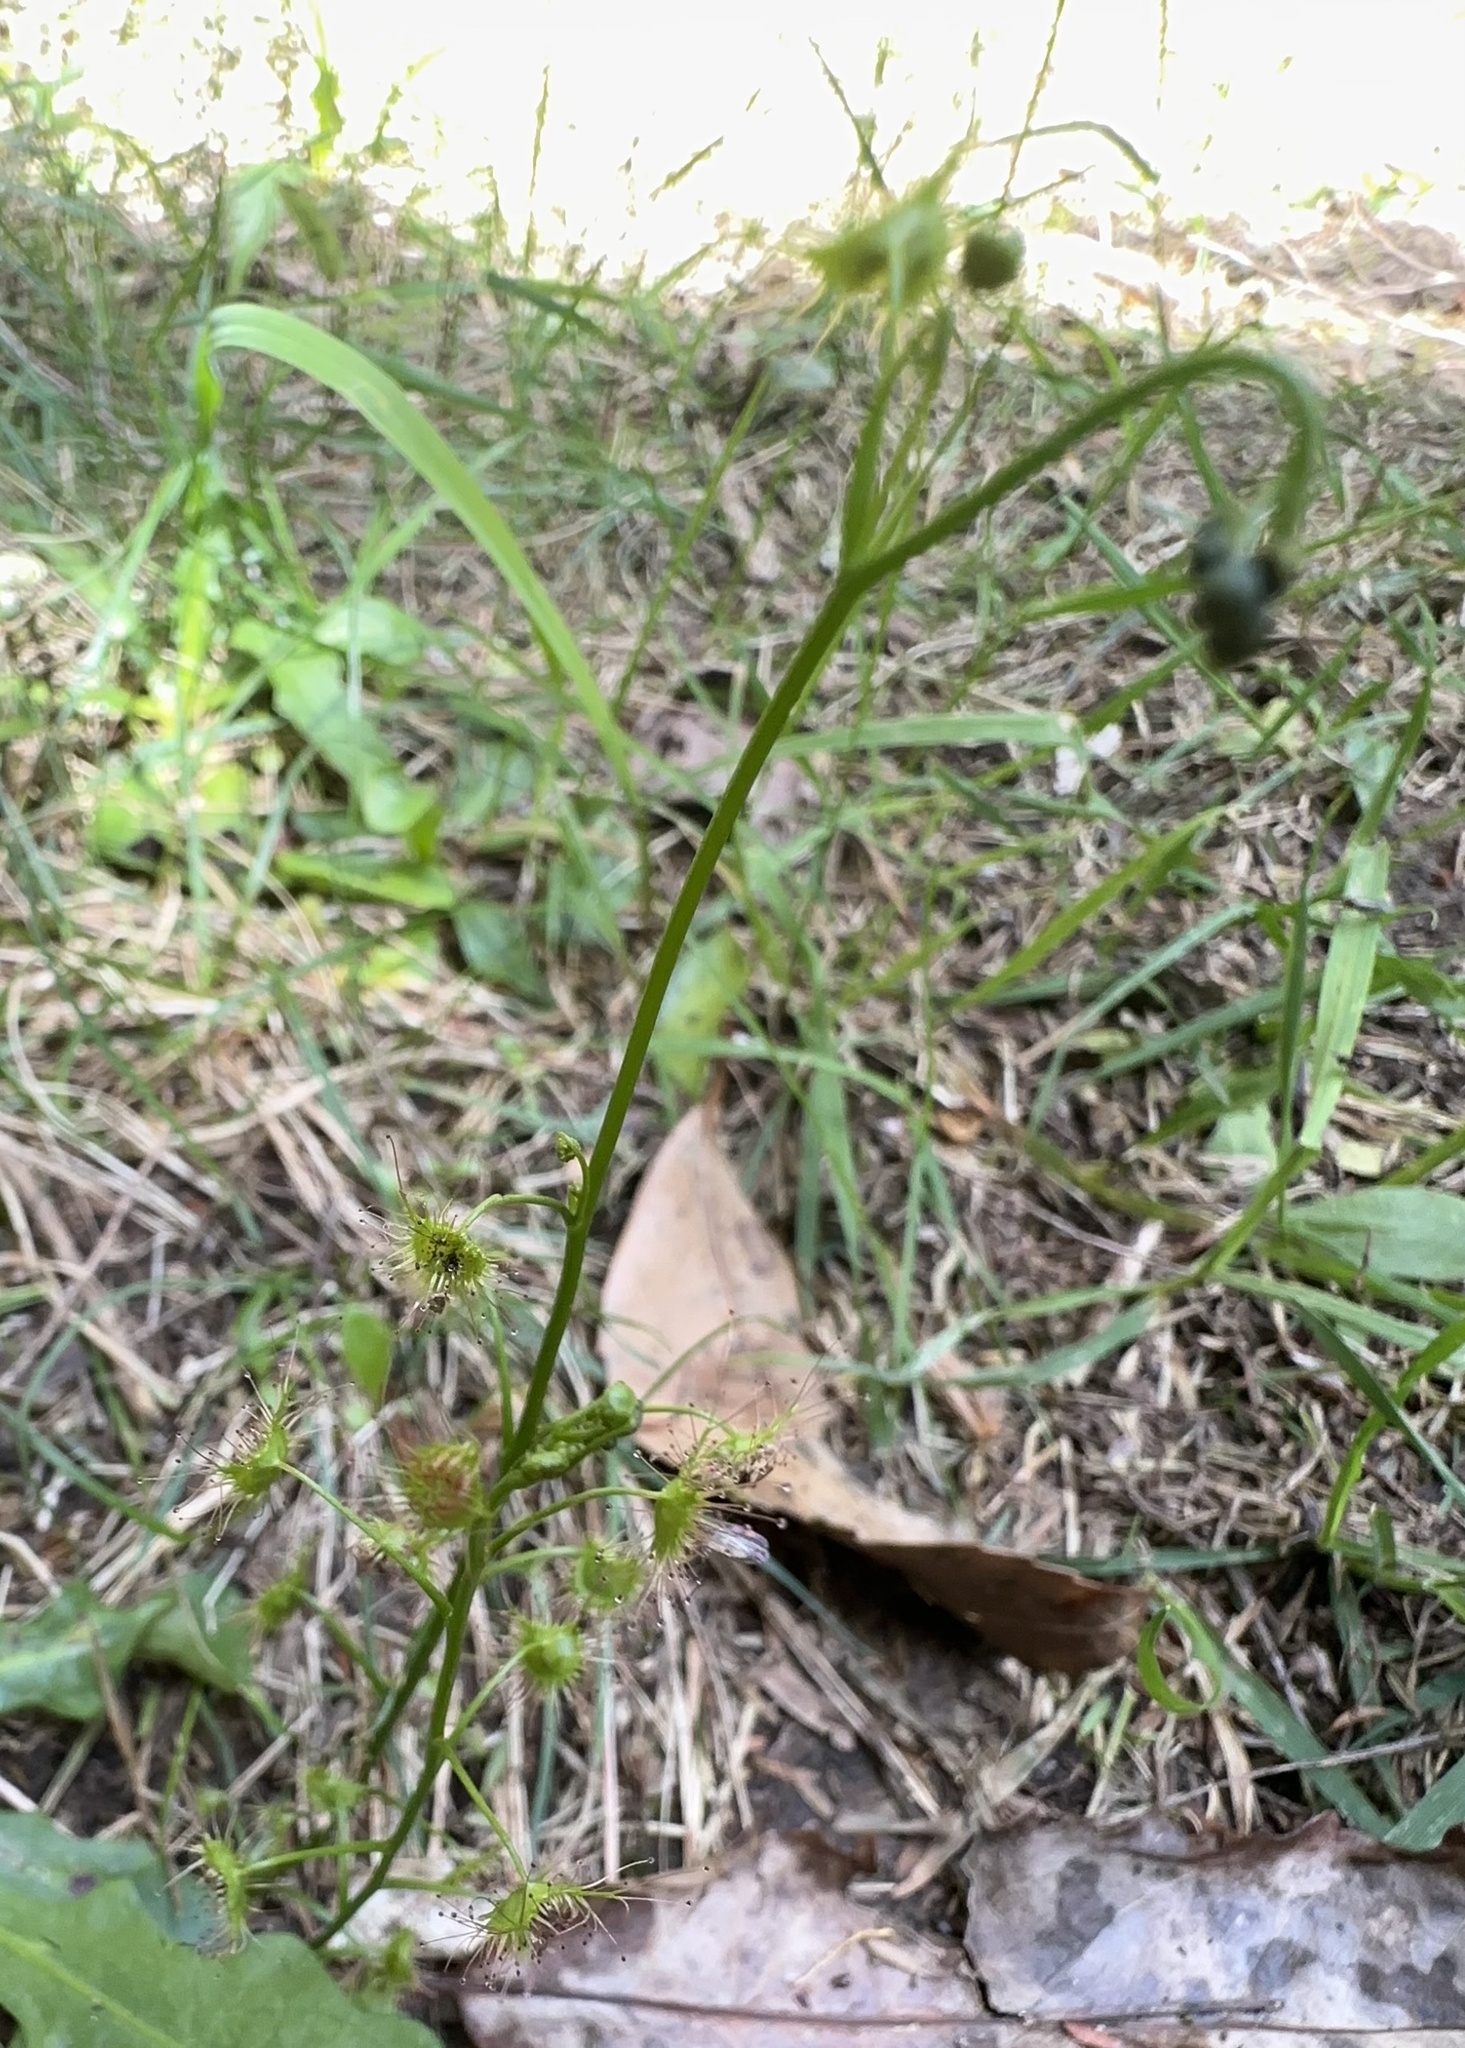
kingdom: Plantae
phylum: Tracheophyta
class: Magnoliopsida
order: Caryophyllales
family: Droseraceae
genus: Drosera
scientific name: Drosera peltata
